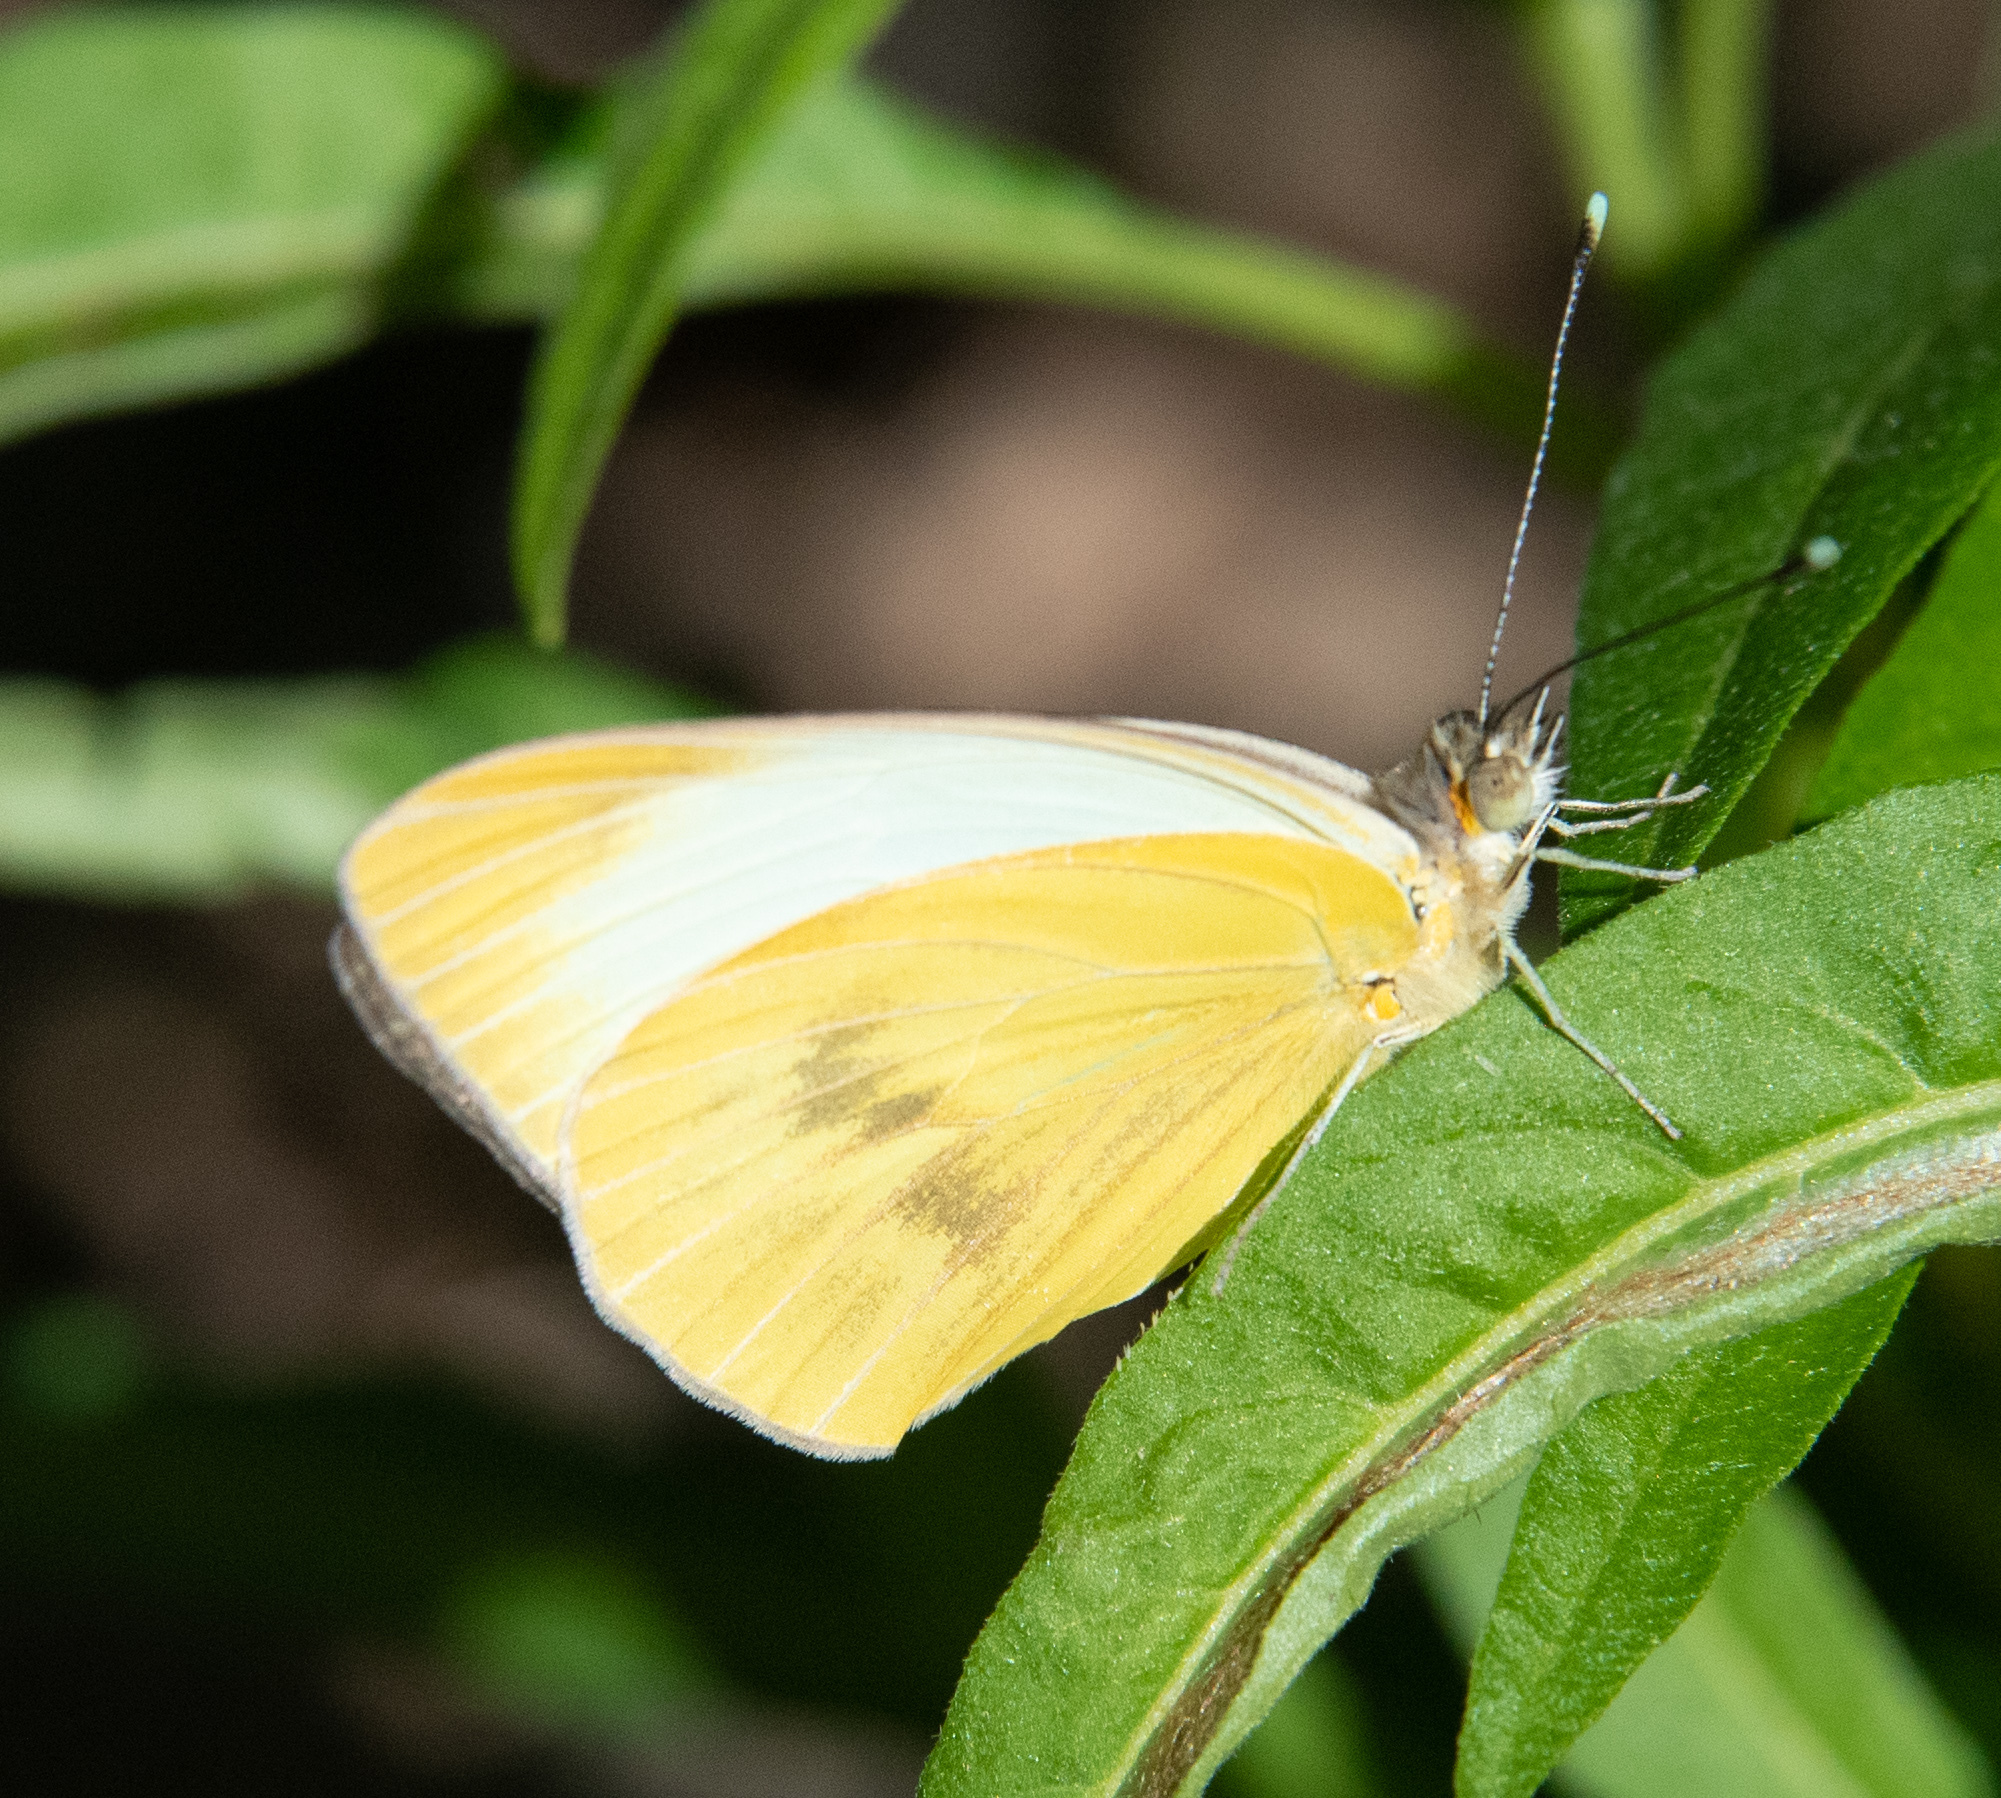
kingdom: Animalia
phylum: Arthropoda
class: Insecta
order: Lepidoptera
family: Pieridae
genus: Ascia
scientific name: Ascia monuste
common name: Great southern white
